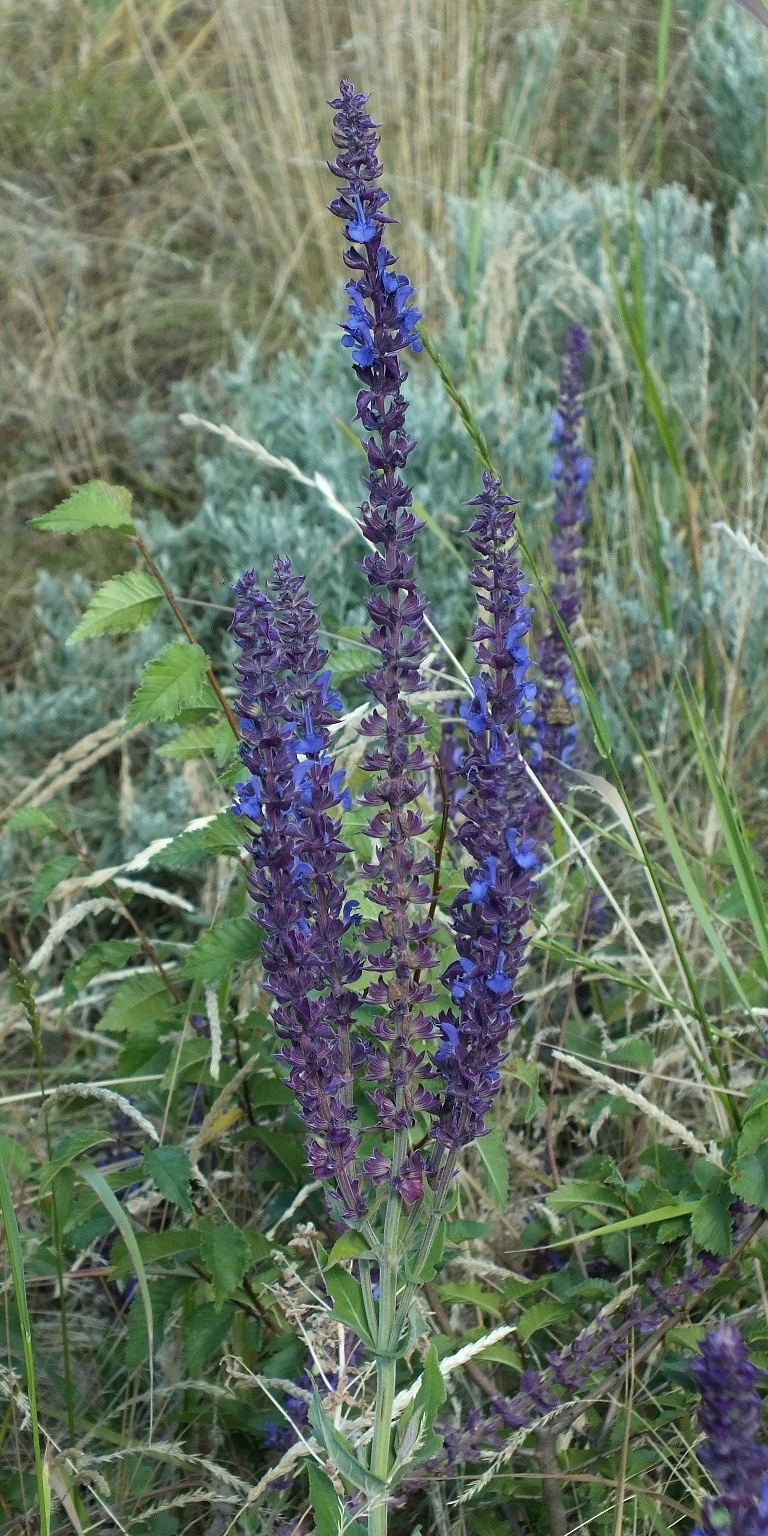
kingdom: Plantae
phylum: Tracheophyta
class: Magnoliopsida
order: Lamiales
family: Lamiaceae
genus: Salvia
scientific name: Salvia nemorosa
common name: Balkan clary
